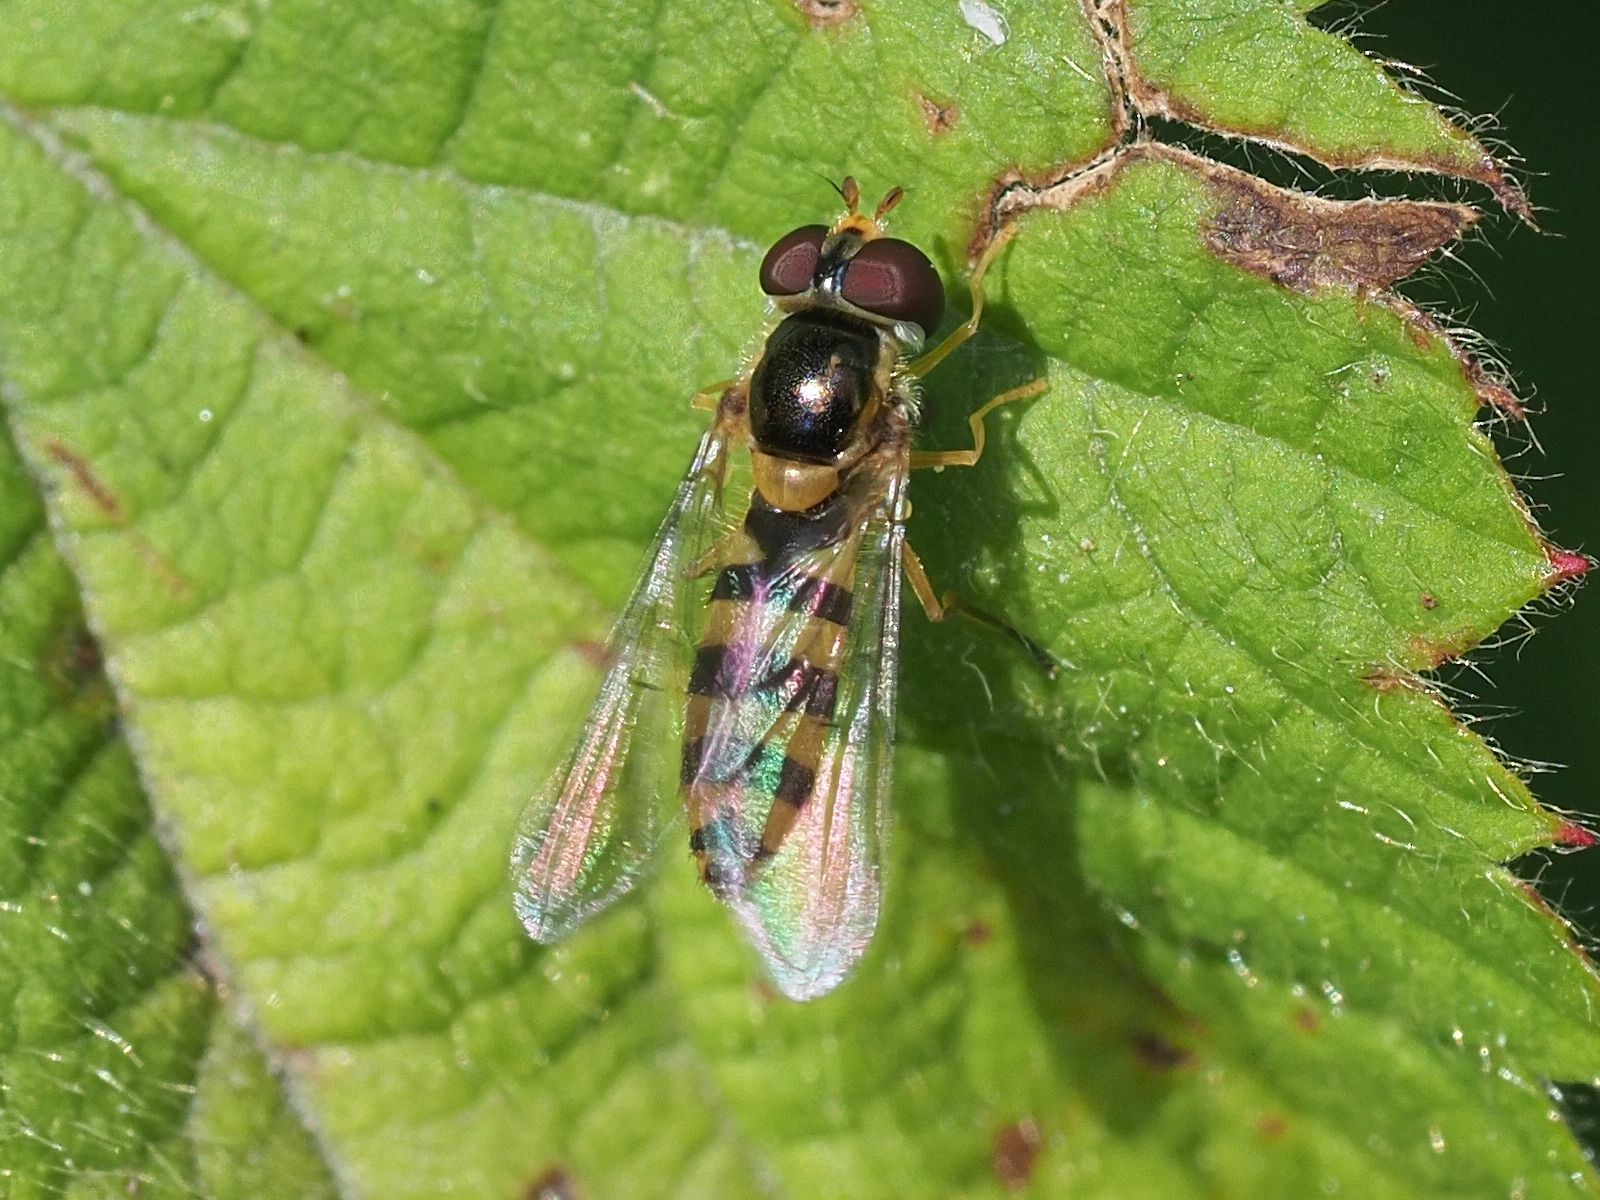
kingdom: Animalia
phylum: Arthropoda
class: Insecta
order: Diptera
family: Syrphidae
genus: Fagisyrphus
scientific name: Fagisyrphus cincta
